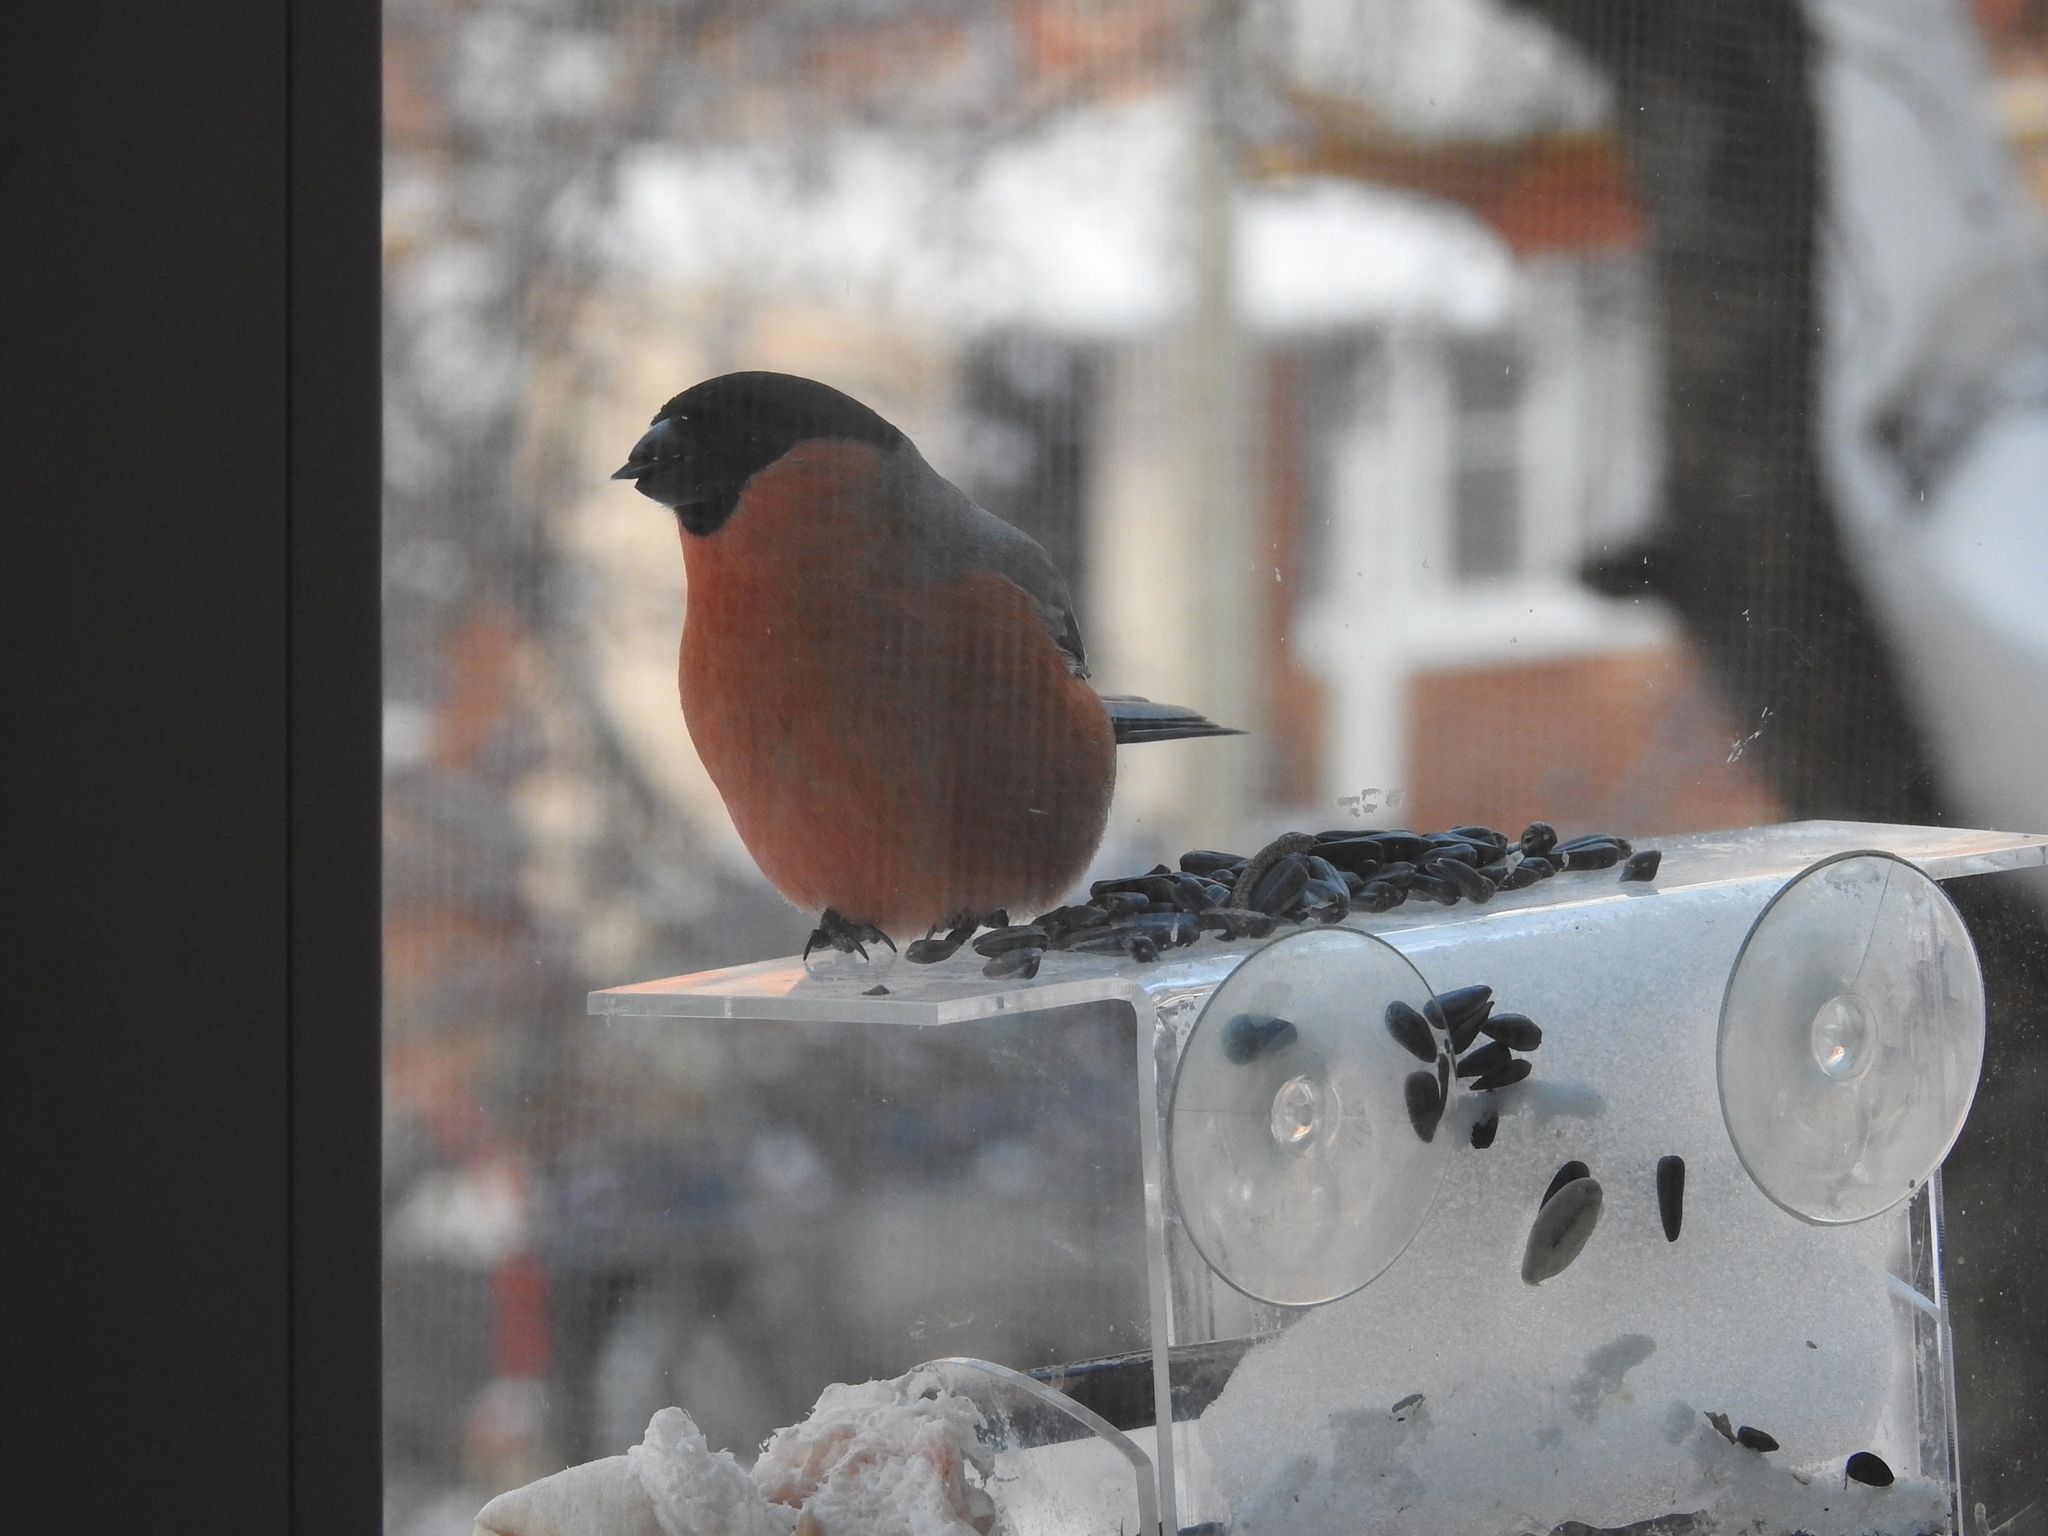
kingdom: Animalia
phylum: Chordata
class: Aves
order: Passeriformes
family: Fringillidae
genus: Pyrrhula
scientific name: Pyrrhula pyrrhula
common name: Eurasian bullfinch
